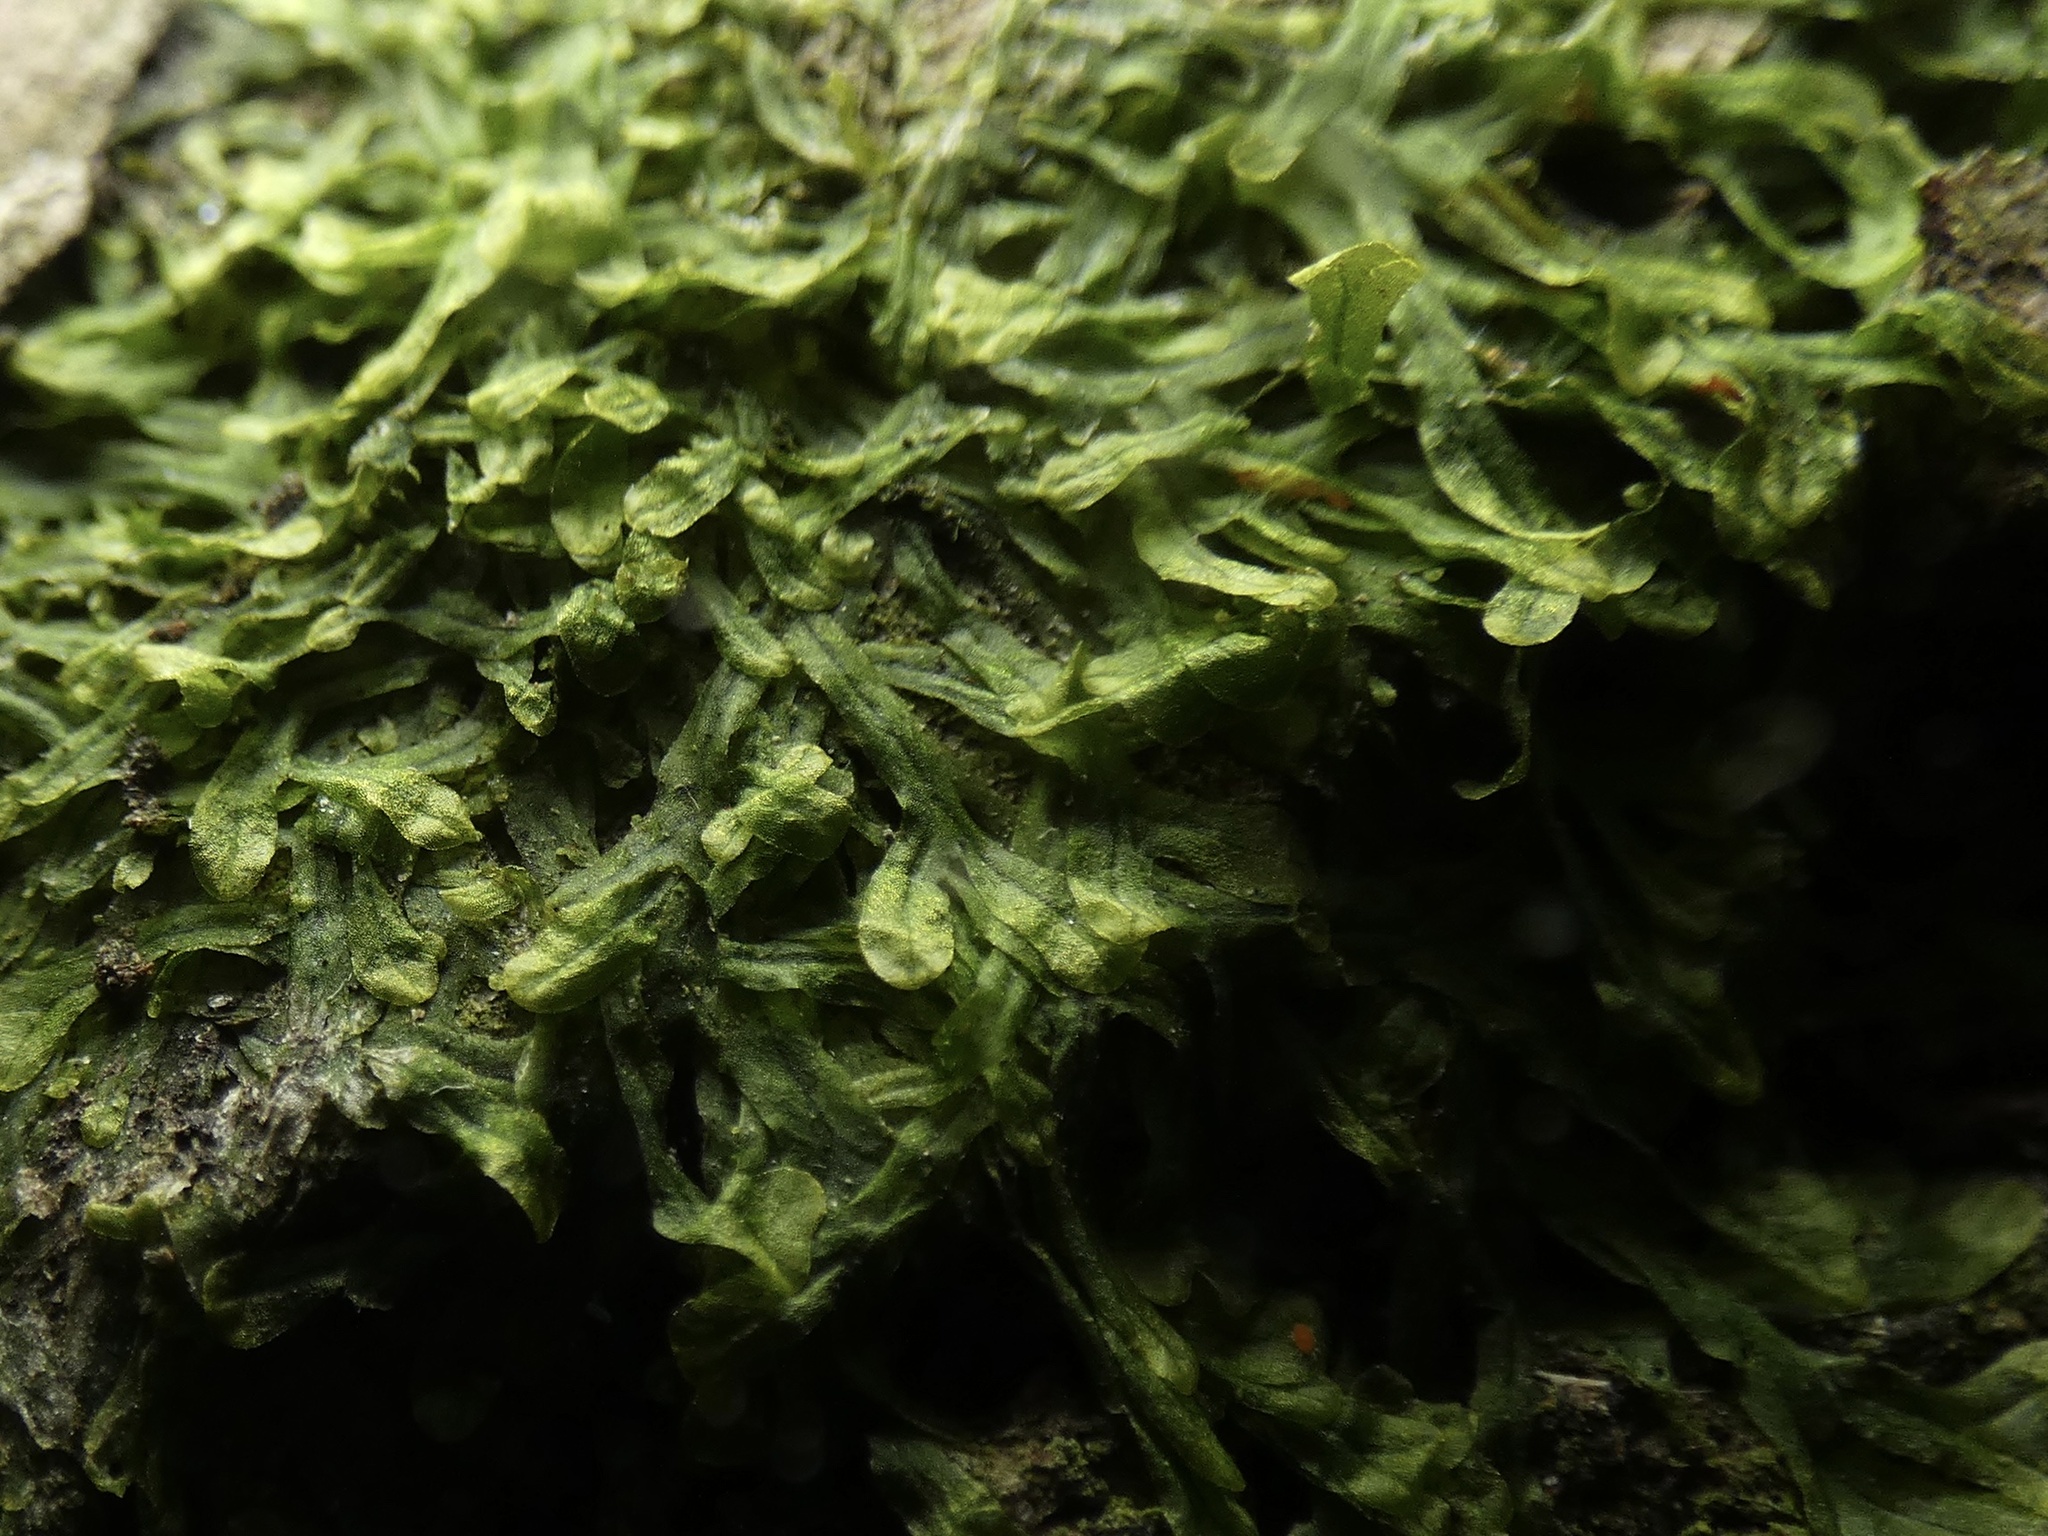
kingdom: Plantae
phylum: Marchantiophyta
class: Jungermanniopsida
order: Metzgeriales
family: Metzgeriaceae
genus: Metzgeria
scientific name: Metzgeria furcata
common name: Forked veilwort
